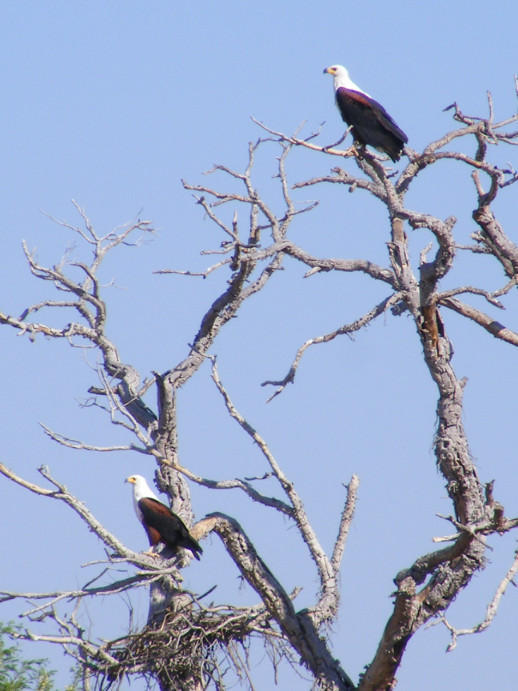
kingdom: Animalia
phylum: Chordata
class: Aves
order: Accipitriformes
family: Accipitridae
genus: Haliaeetus
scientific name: Haliaeetus vocifer
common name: African fish eagle
